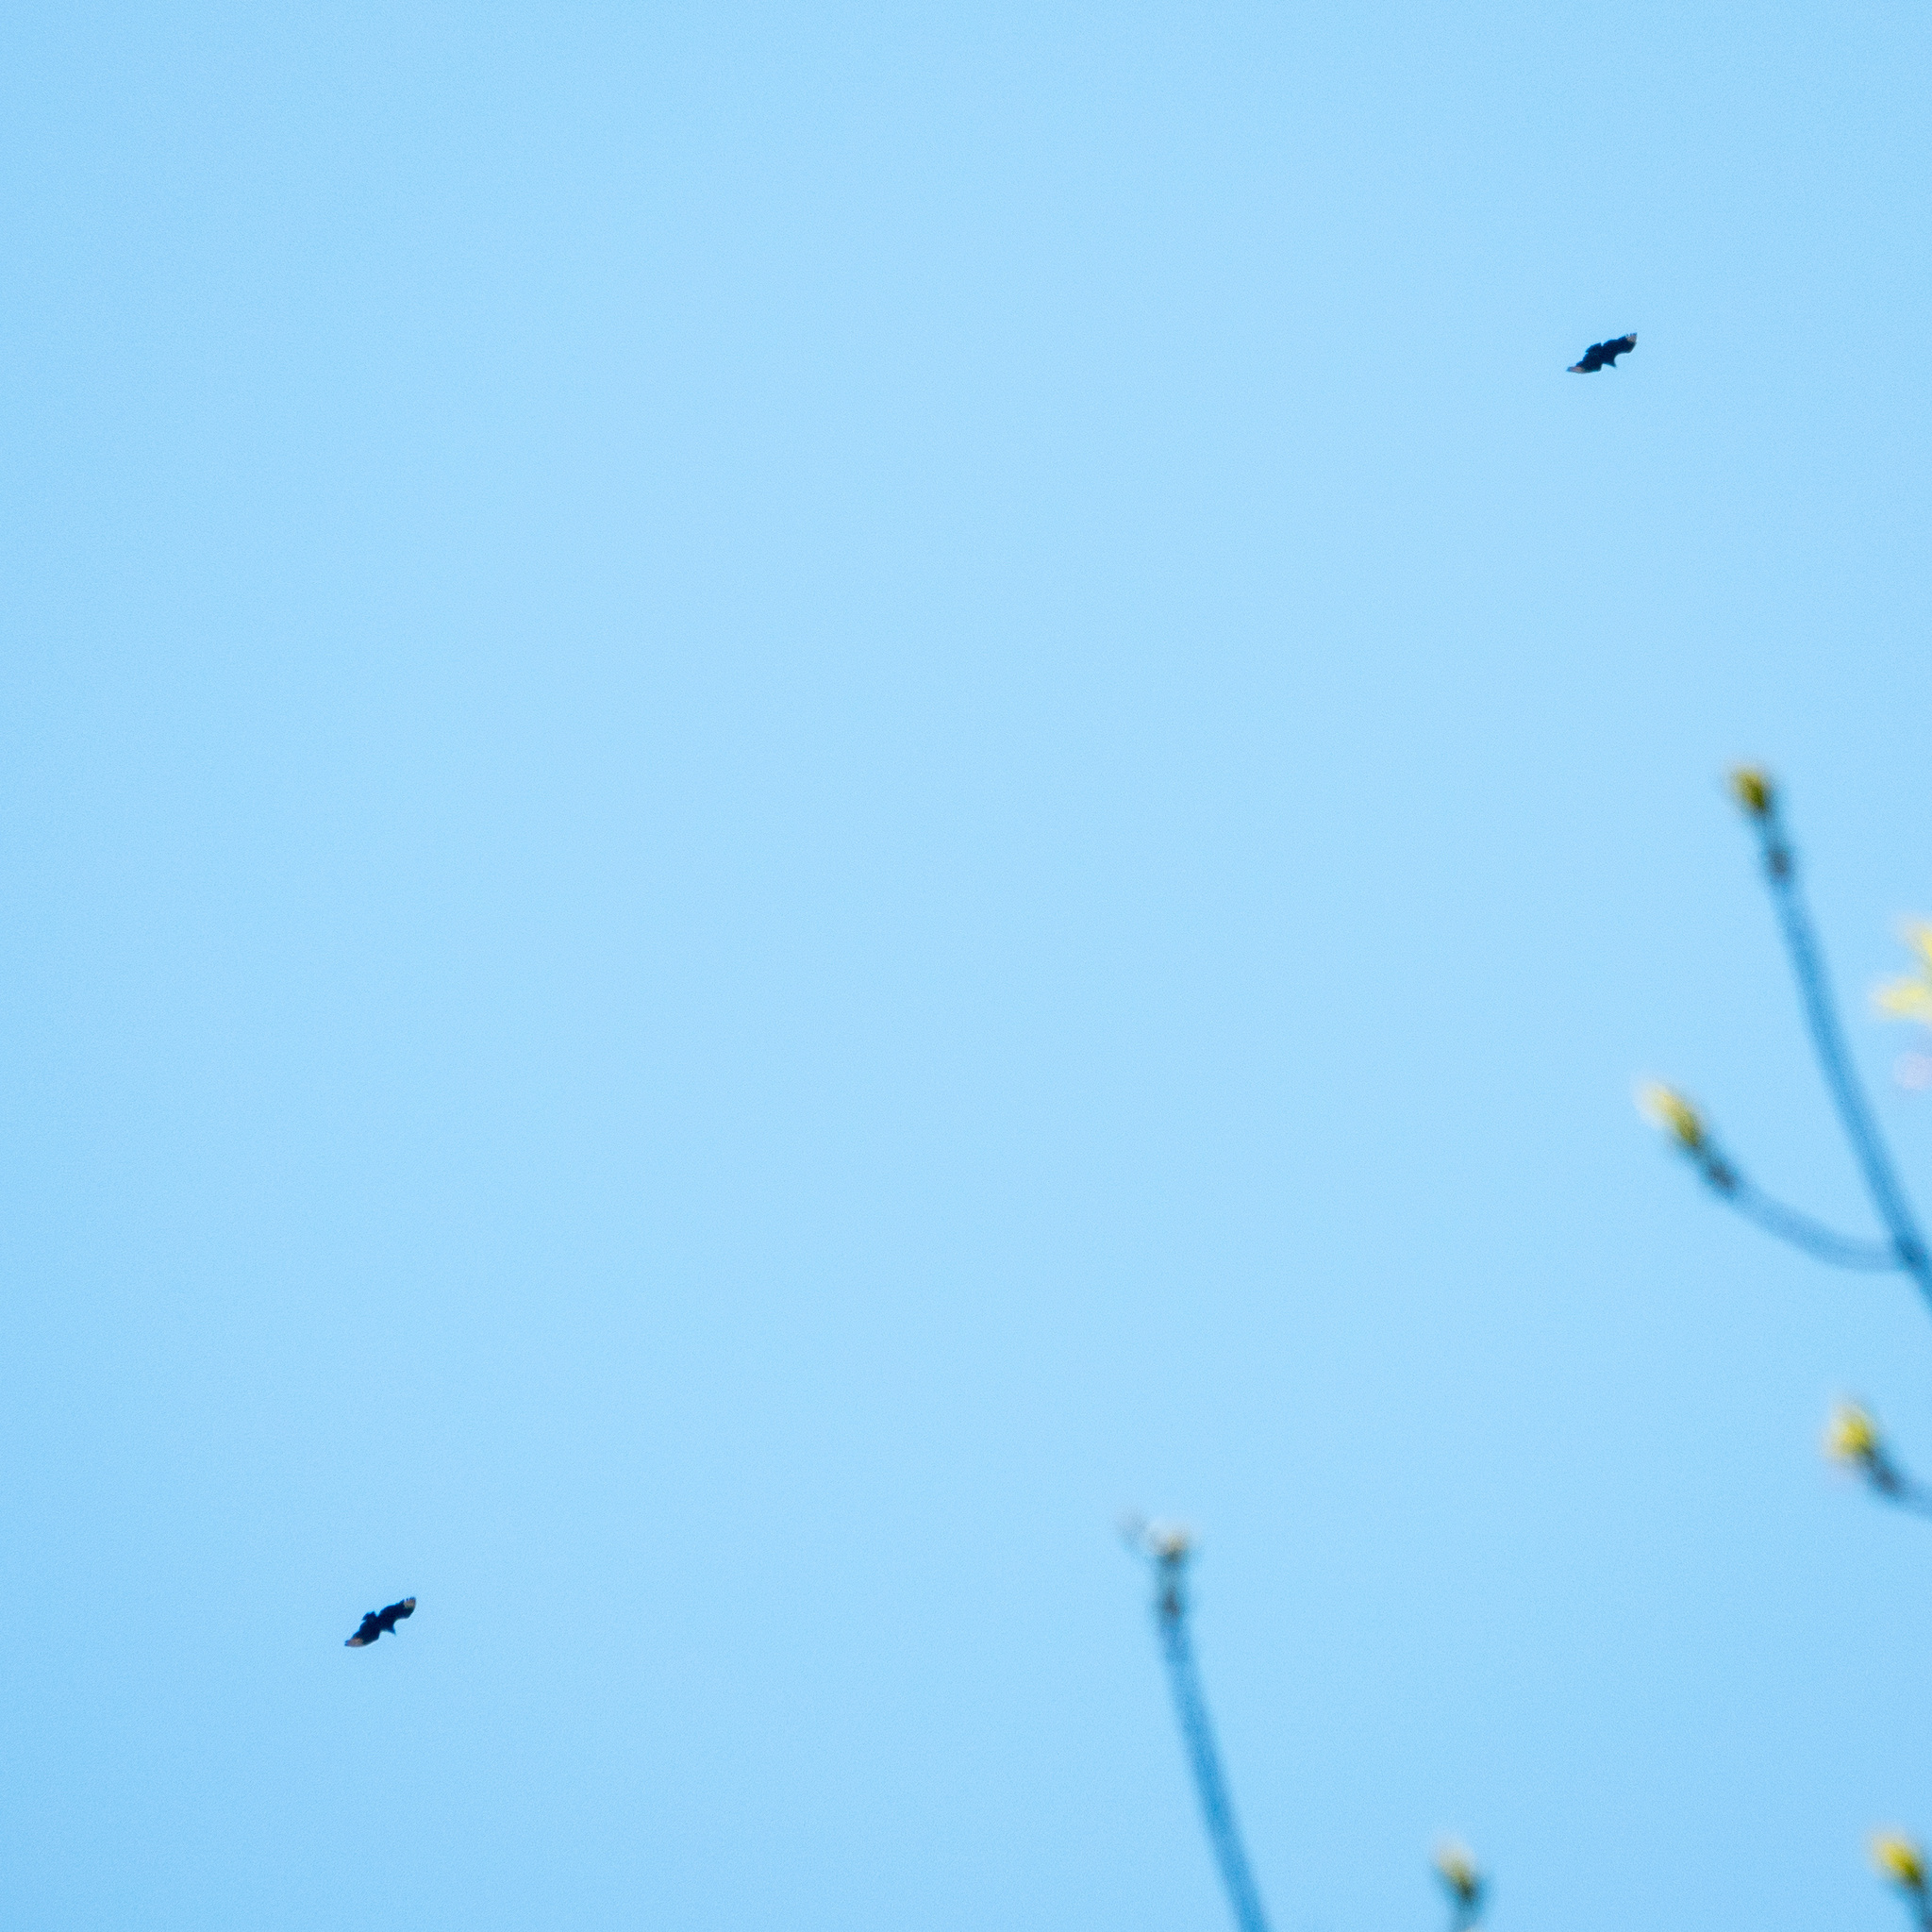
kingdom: Animalia
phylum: Chordata
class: Aves
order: Accipitriformes
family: Cathartidae
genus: Coragyps
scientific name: Coragyps atratus
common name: Black vulture
